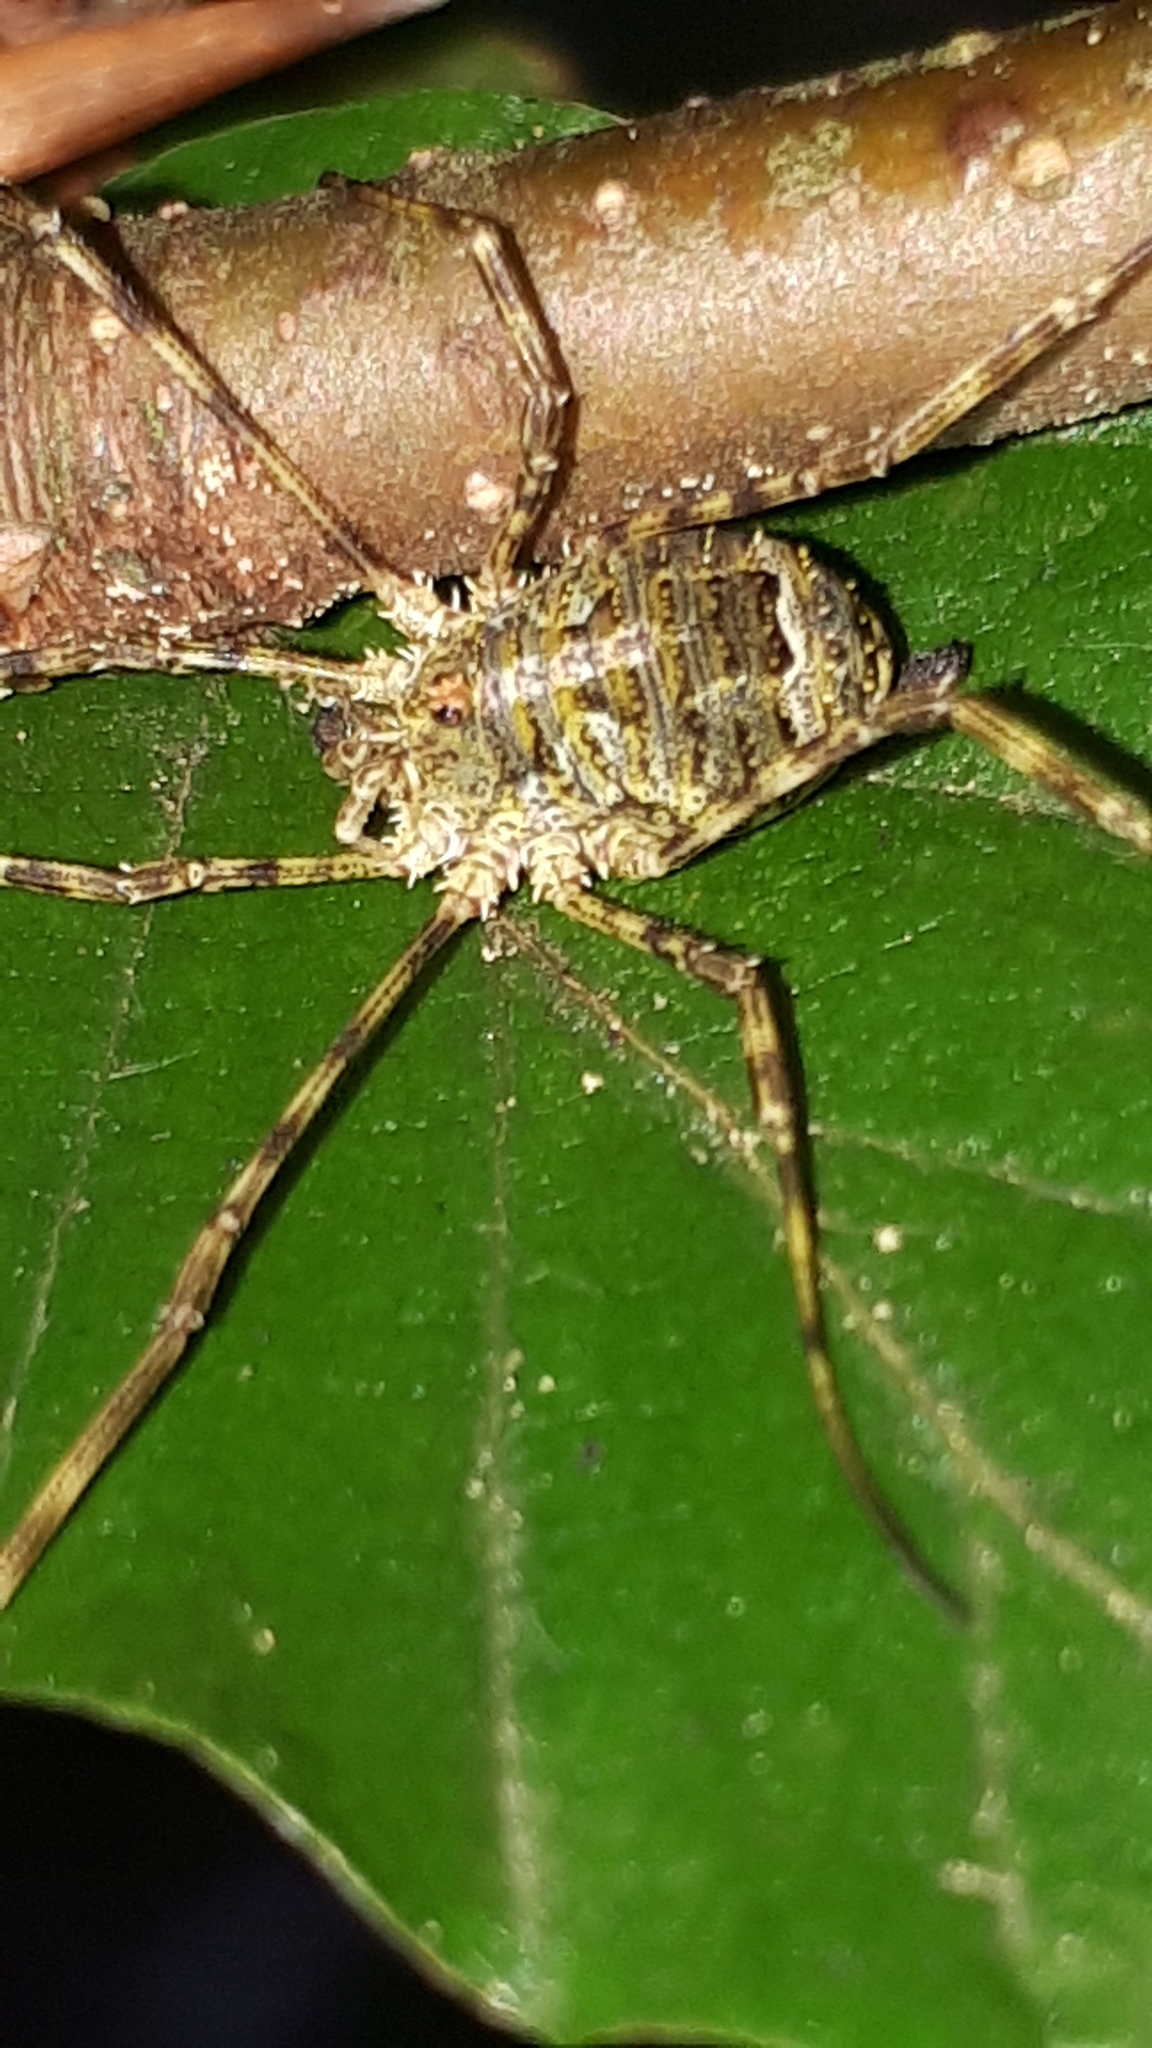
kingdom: Animalia
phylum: Arthropoda
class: Arachnida
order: Opiliones
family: Phalangiidae
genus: Lacinius
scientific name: Lacinius dentiger
